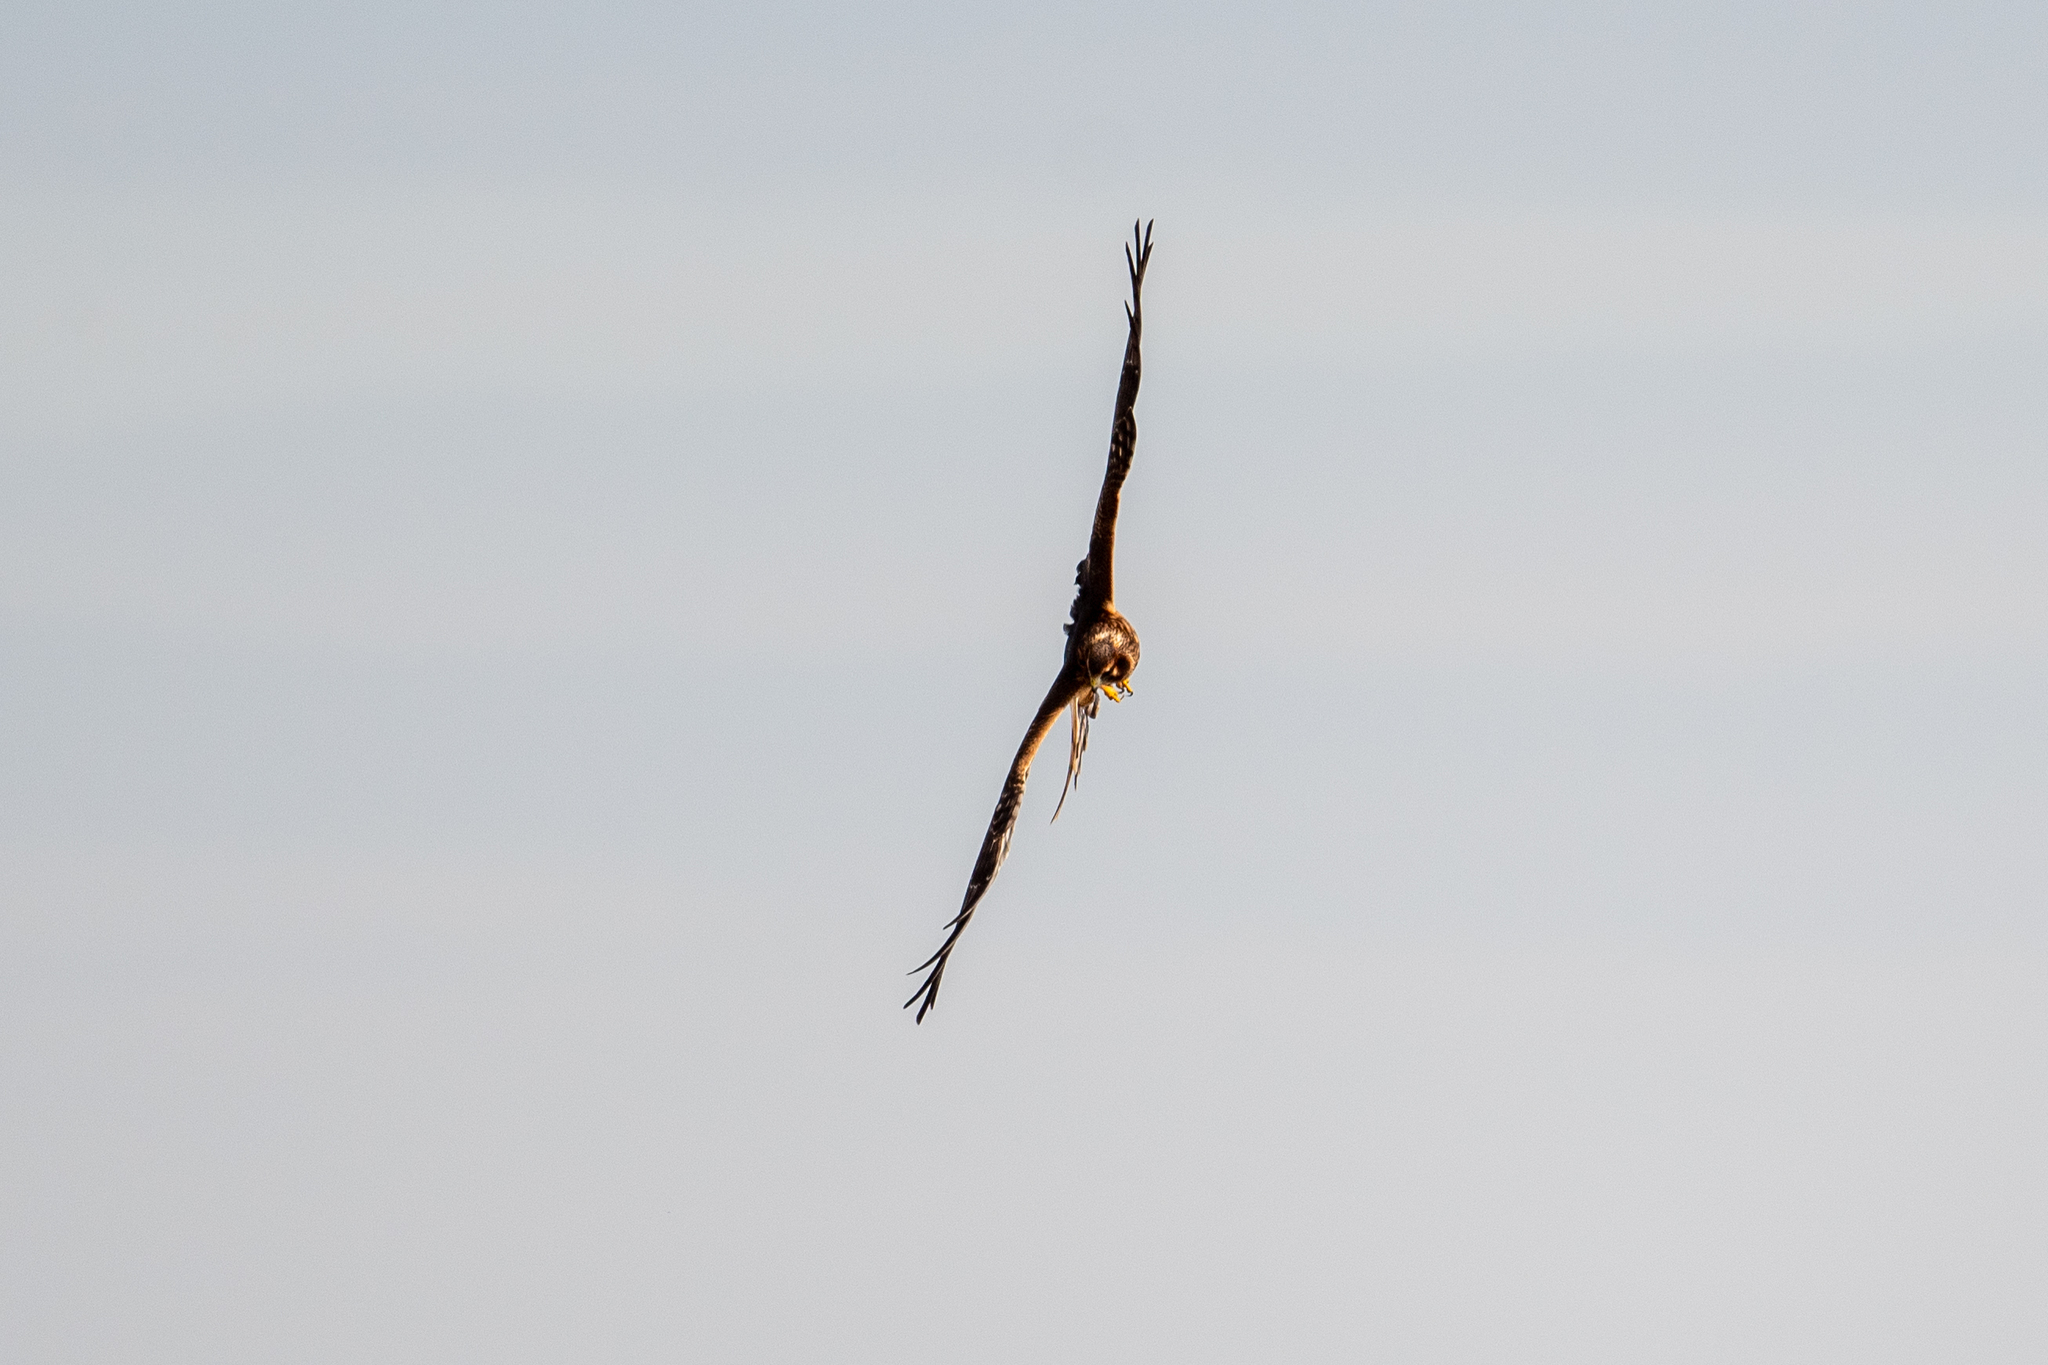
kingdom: Animalia
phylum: Chordata
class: Aves
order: Accipitriformes
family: Accipitridae
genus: Circus
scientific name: Circus cyaneus
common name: Hen harrier
